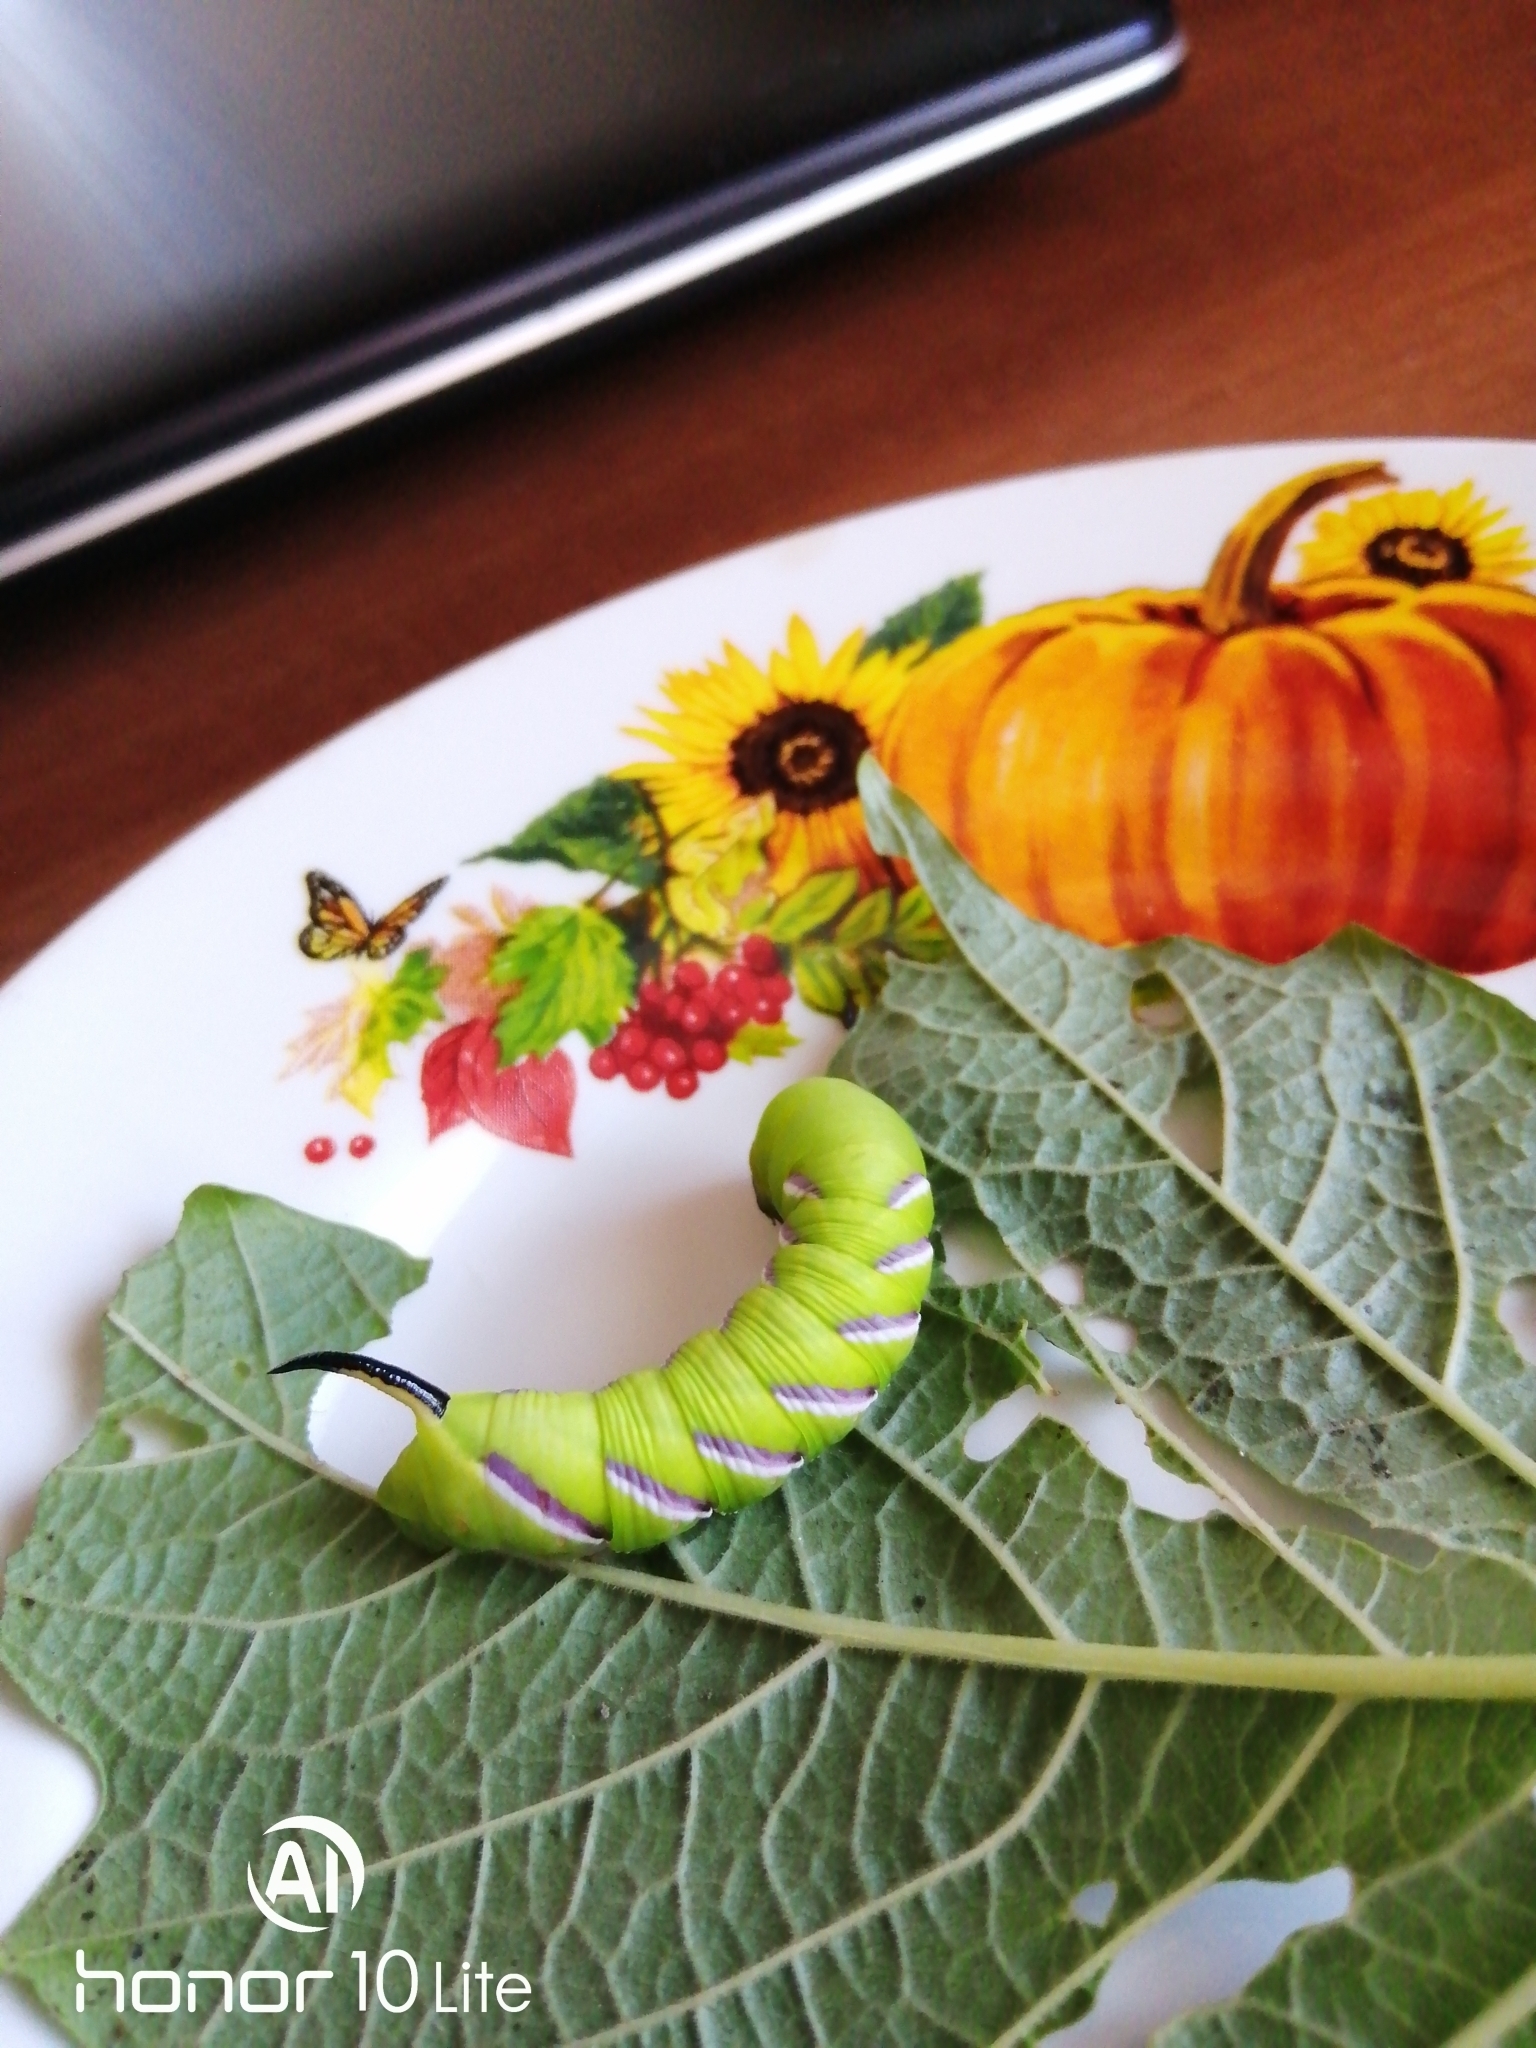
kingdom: Animalia
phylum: Arthropoda
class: Insecta
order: Lepidoptera
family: Sphingidae
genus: Sphinx
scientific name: Sphinx ligustri
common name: Privet hawk-moth
